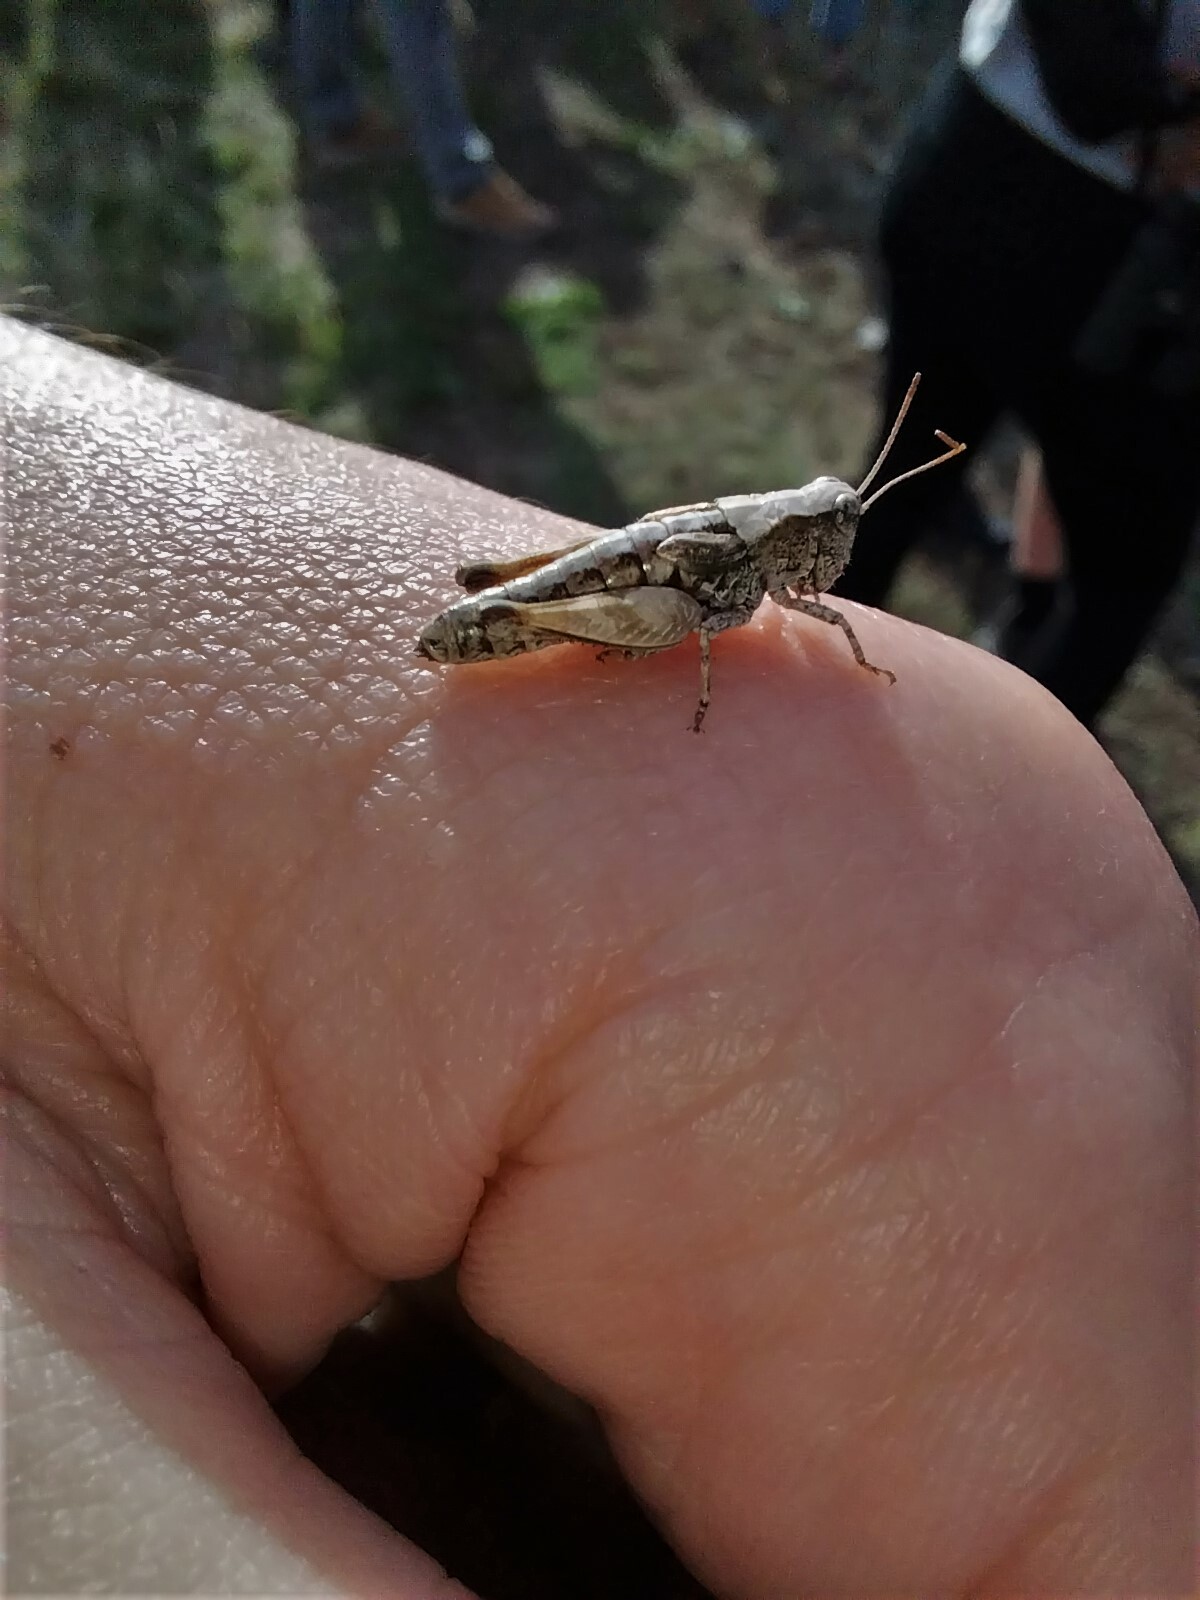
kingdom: Animalia
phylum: Arthropoda
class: Insecta
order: Orthoptera
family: Acrididae
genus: Phaulacridium
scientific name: Phaulacridium marginale
